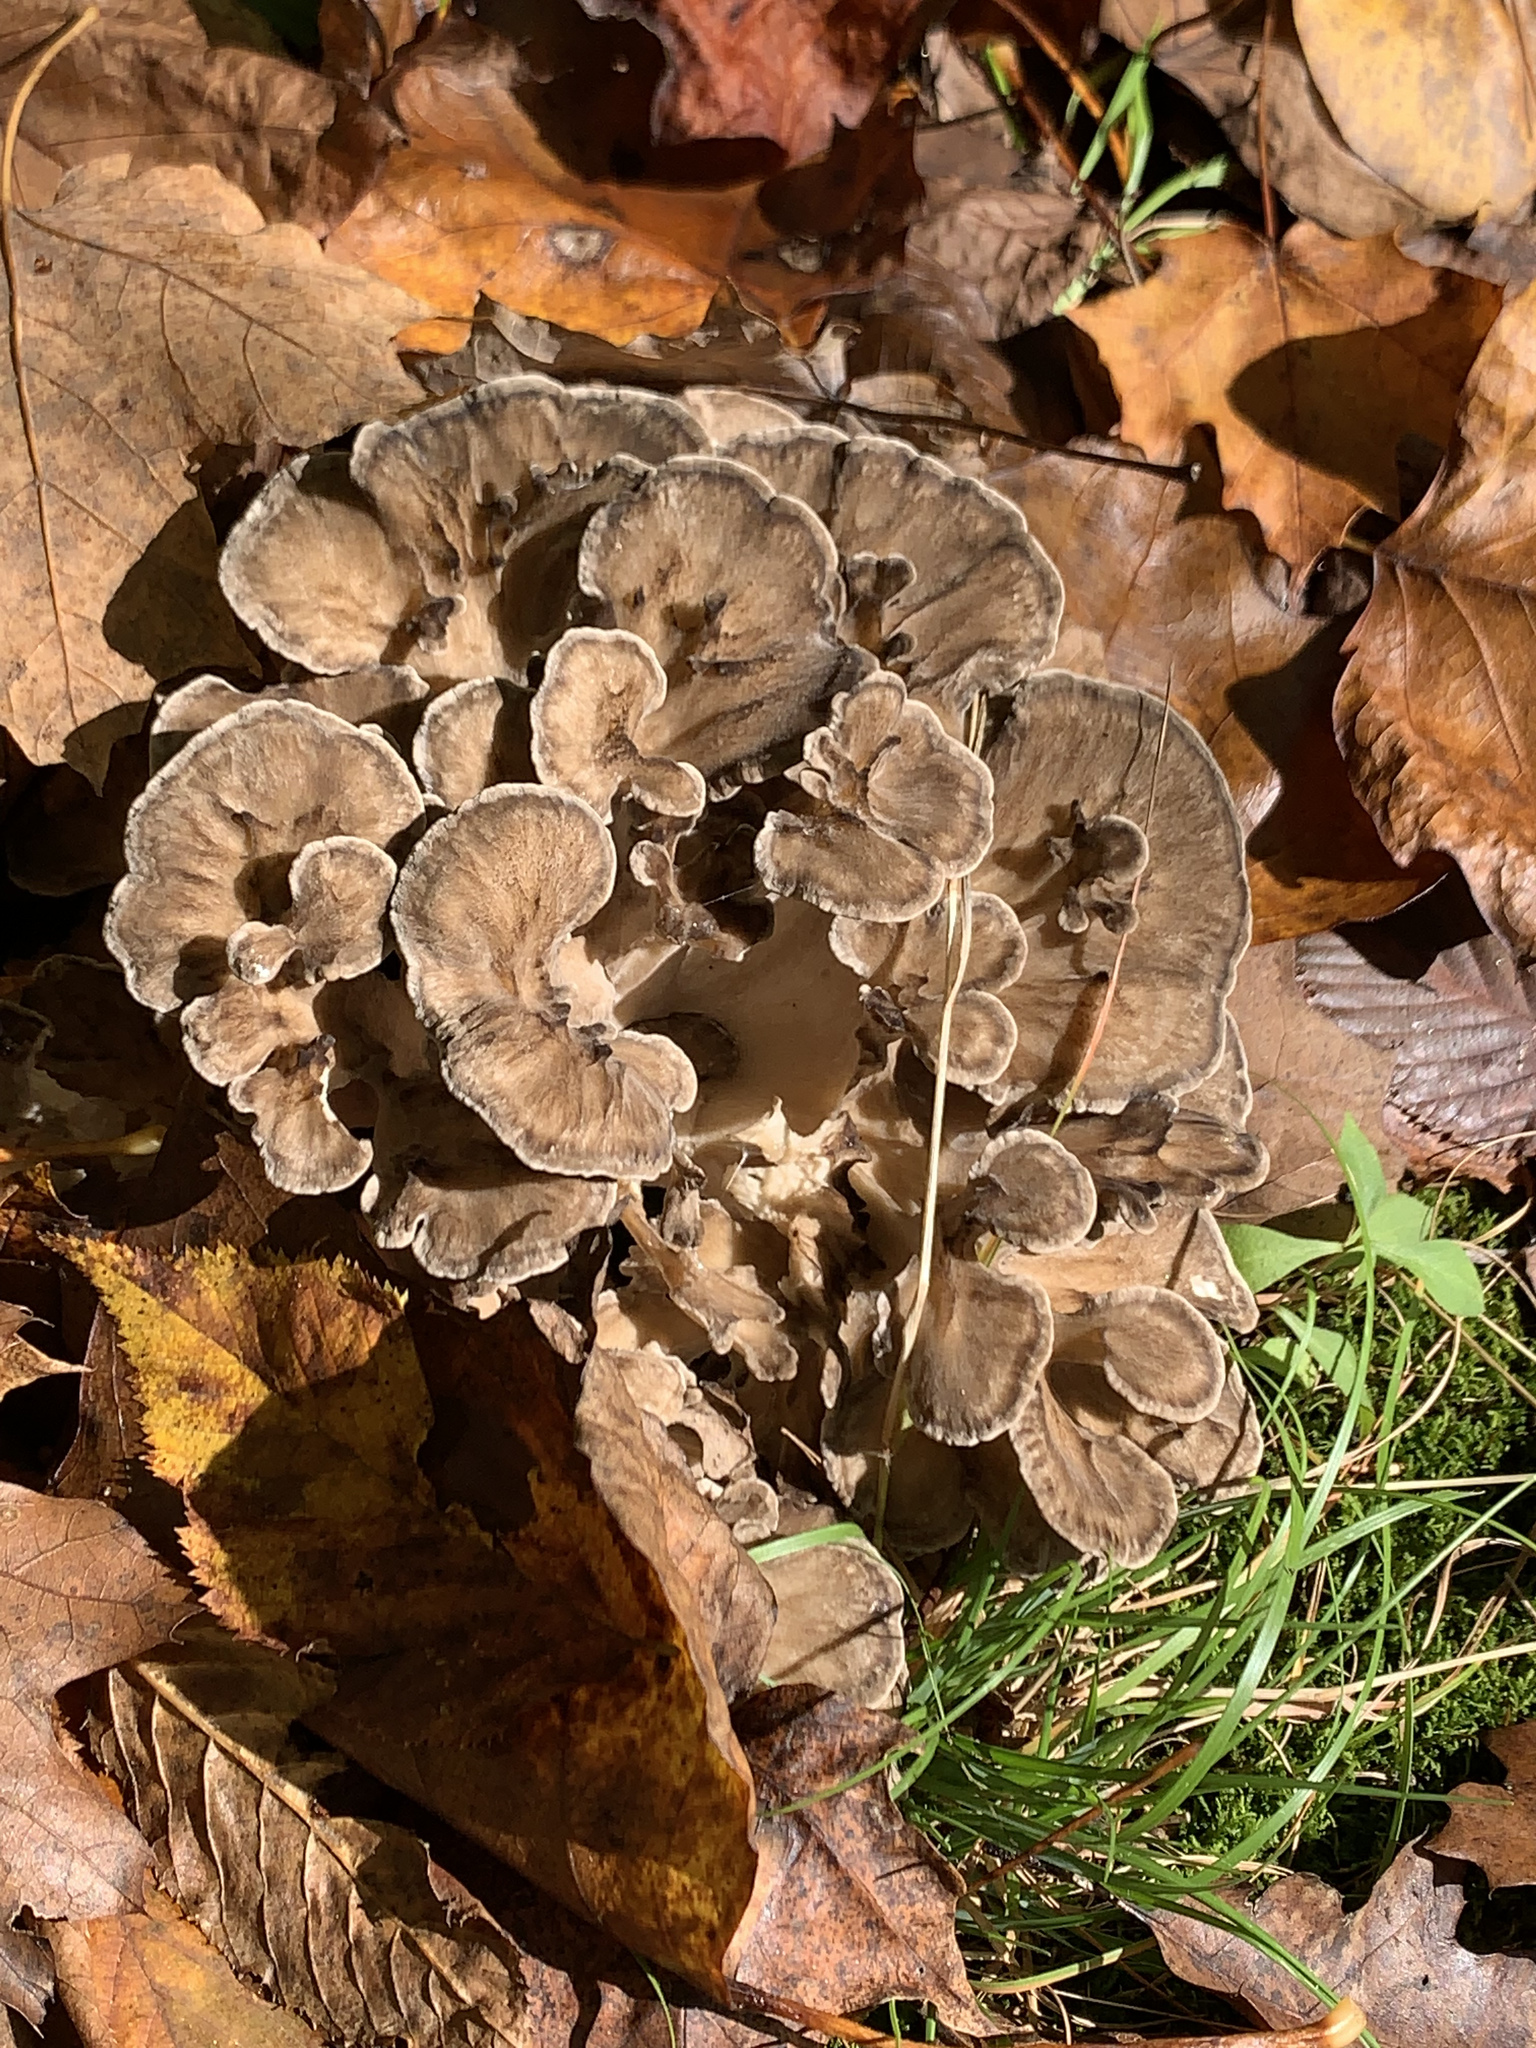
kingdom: Fungi
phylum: Basidiomycota
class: Agaricomycetes
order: Polyporales
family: Grifolaceae
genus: Grifola
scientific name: Grifola frondosa
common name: Hen of the woods
